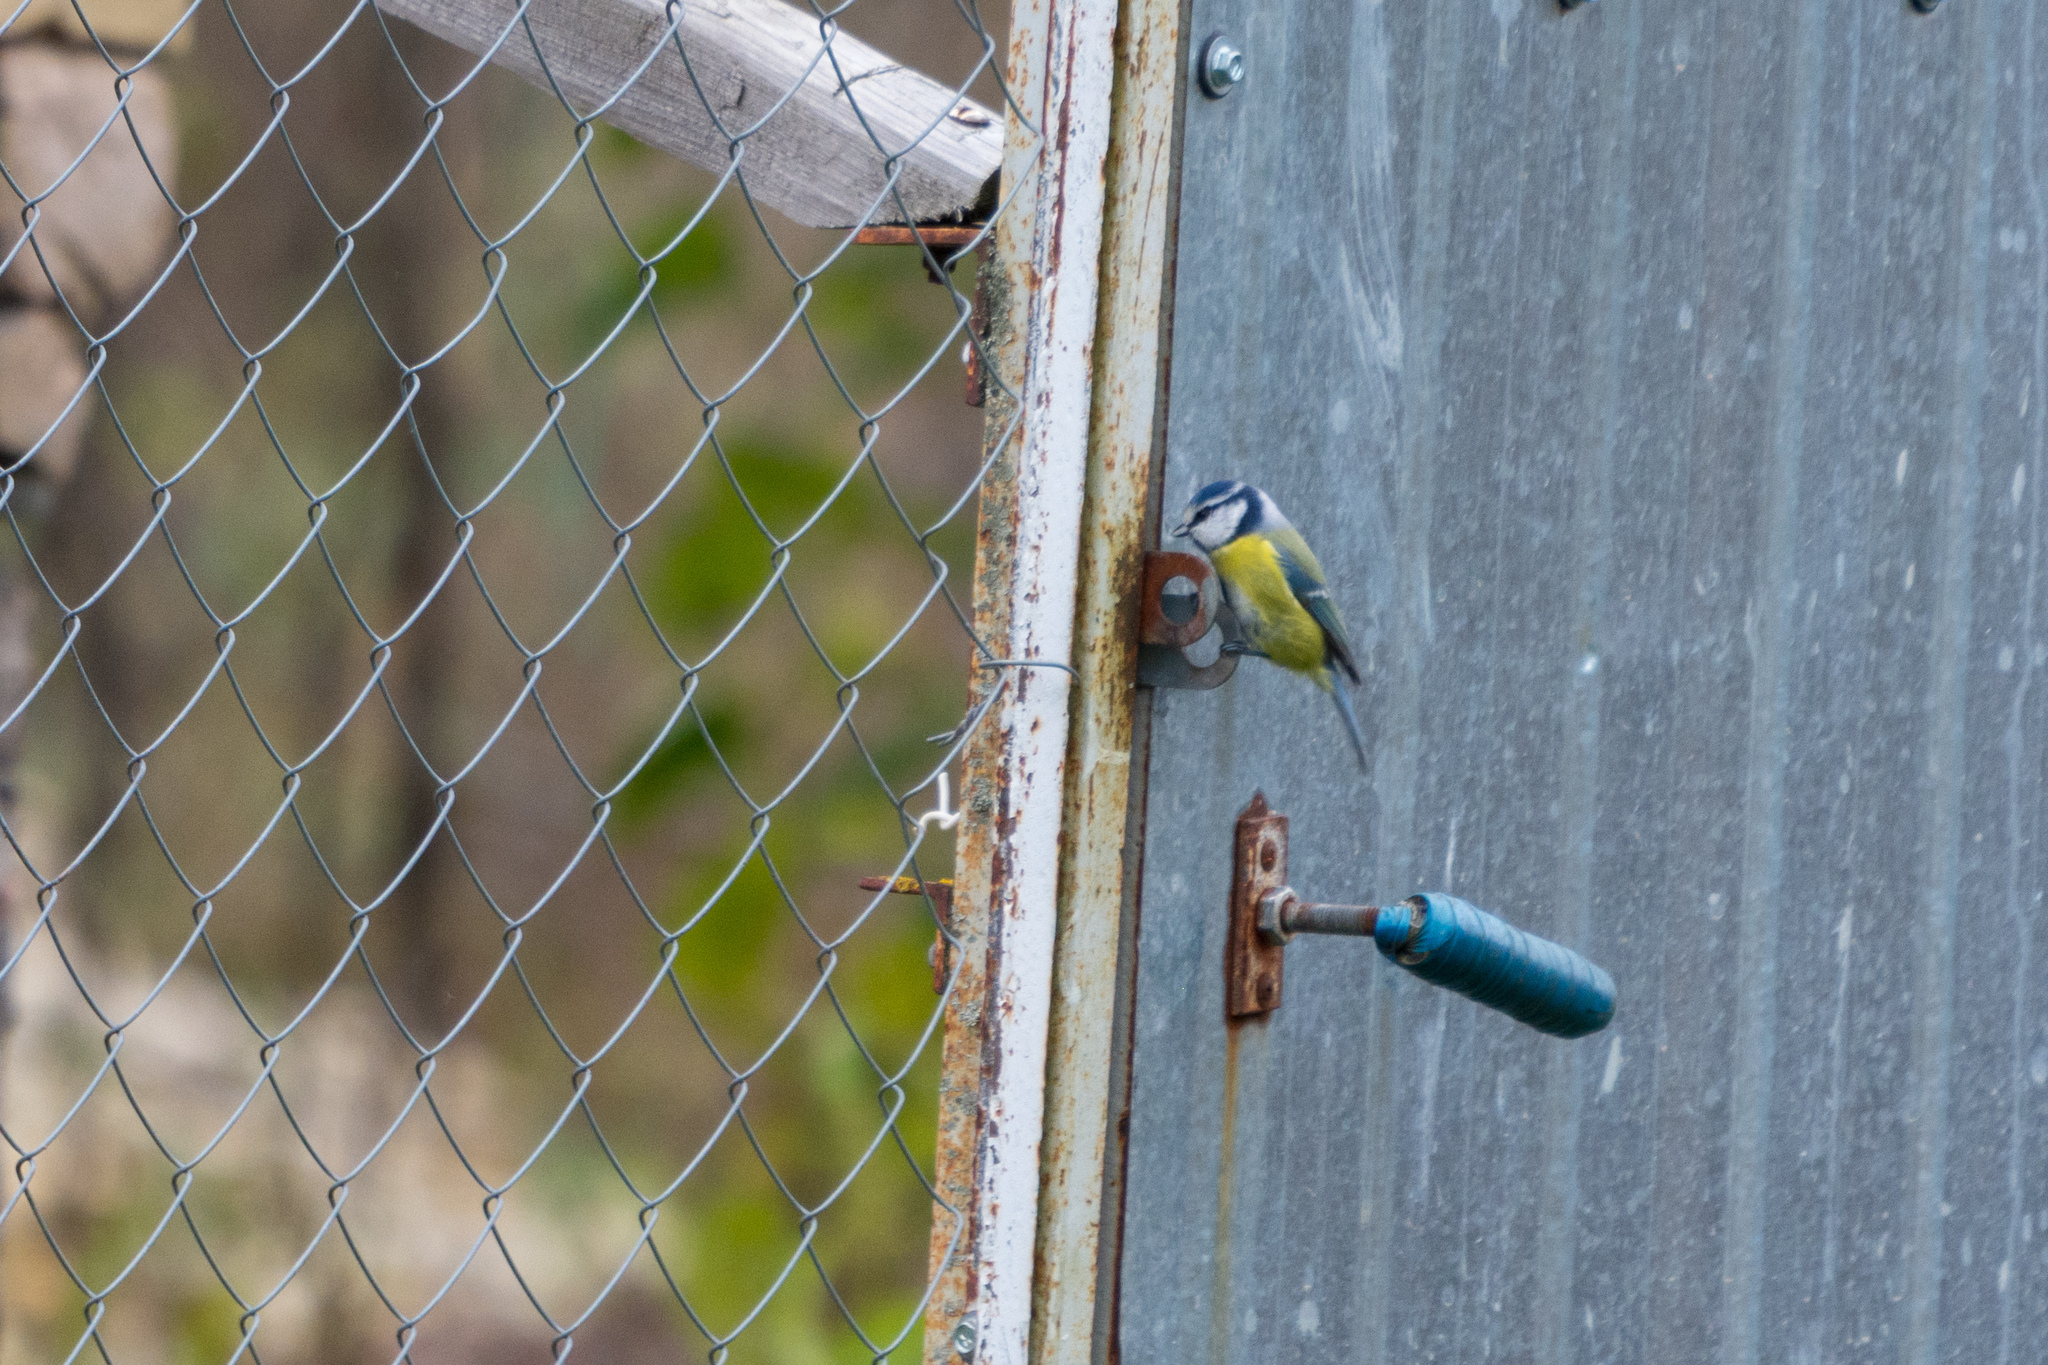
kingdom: Animalia
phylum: Chordata
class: Aves
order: Passeriformes
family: Paridae
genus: Cyanistes
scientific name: Cyanistes caeruleus
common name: Eurasian blue tit
